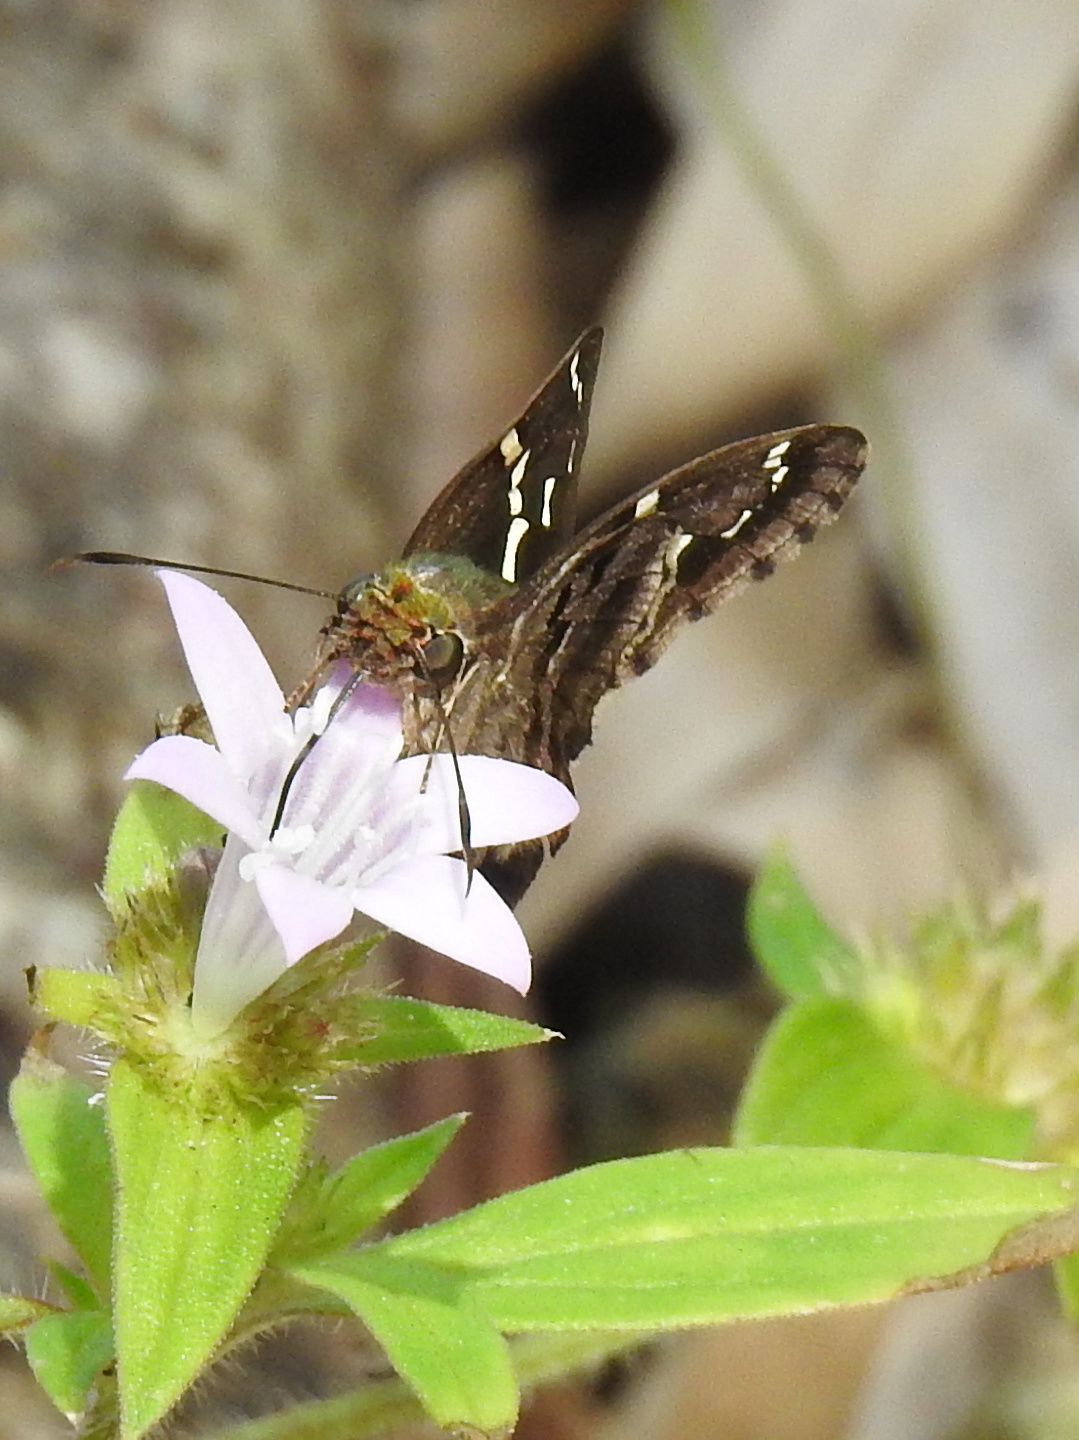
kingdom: Animalia
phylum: Arthropoda
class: Insecta
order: Lepidoptera
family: Hesperiidae
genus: Urbanus
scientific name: Urbanus proteus
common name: Long-tailed skipper
